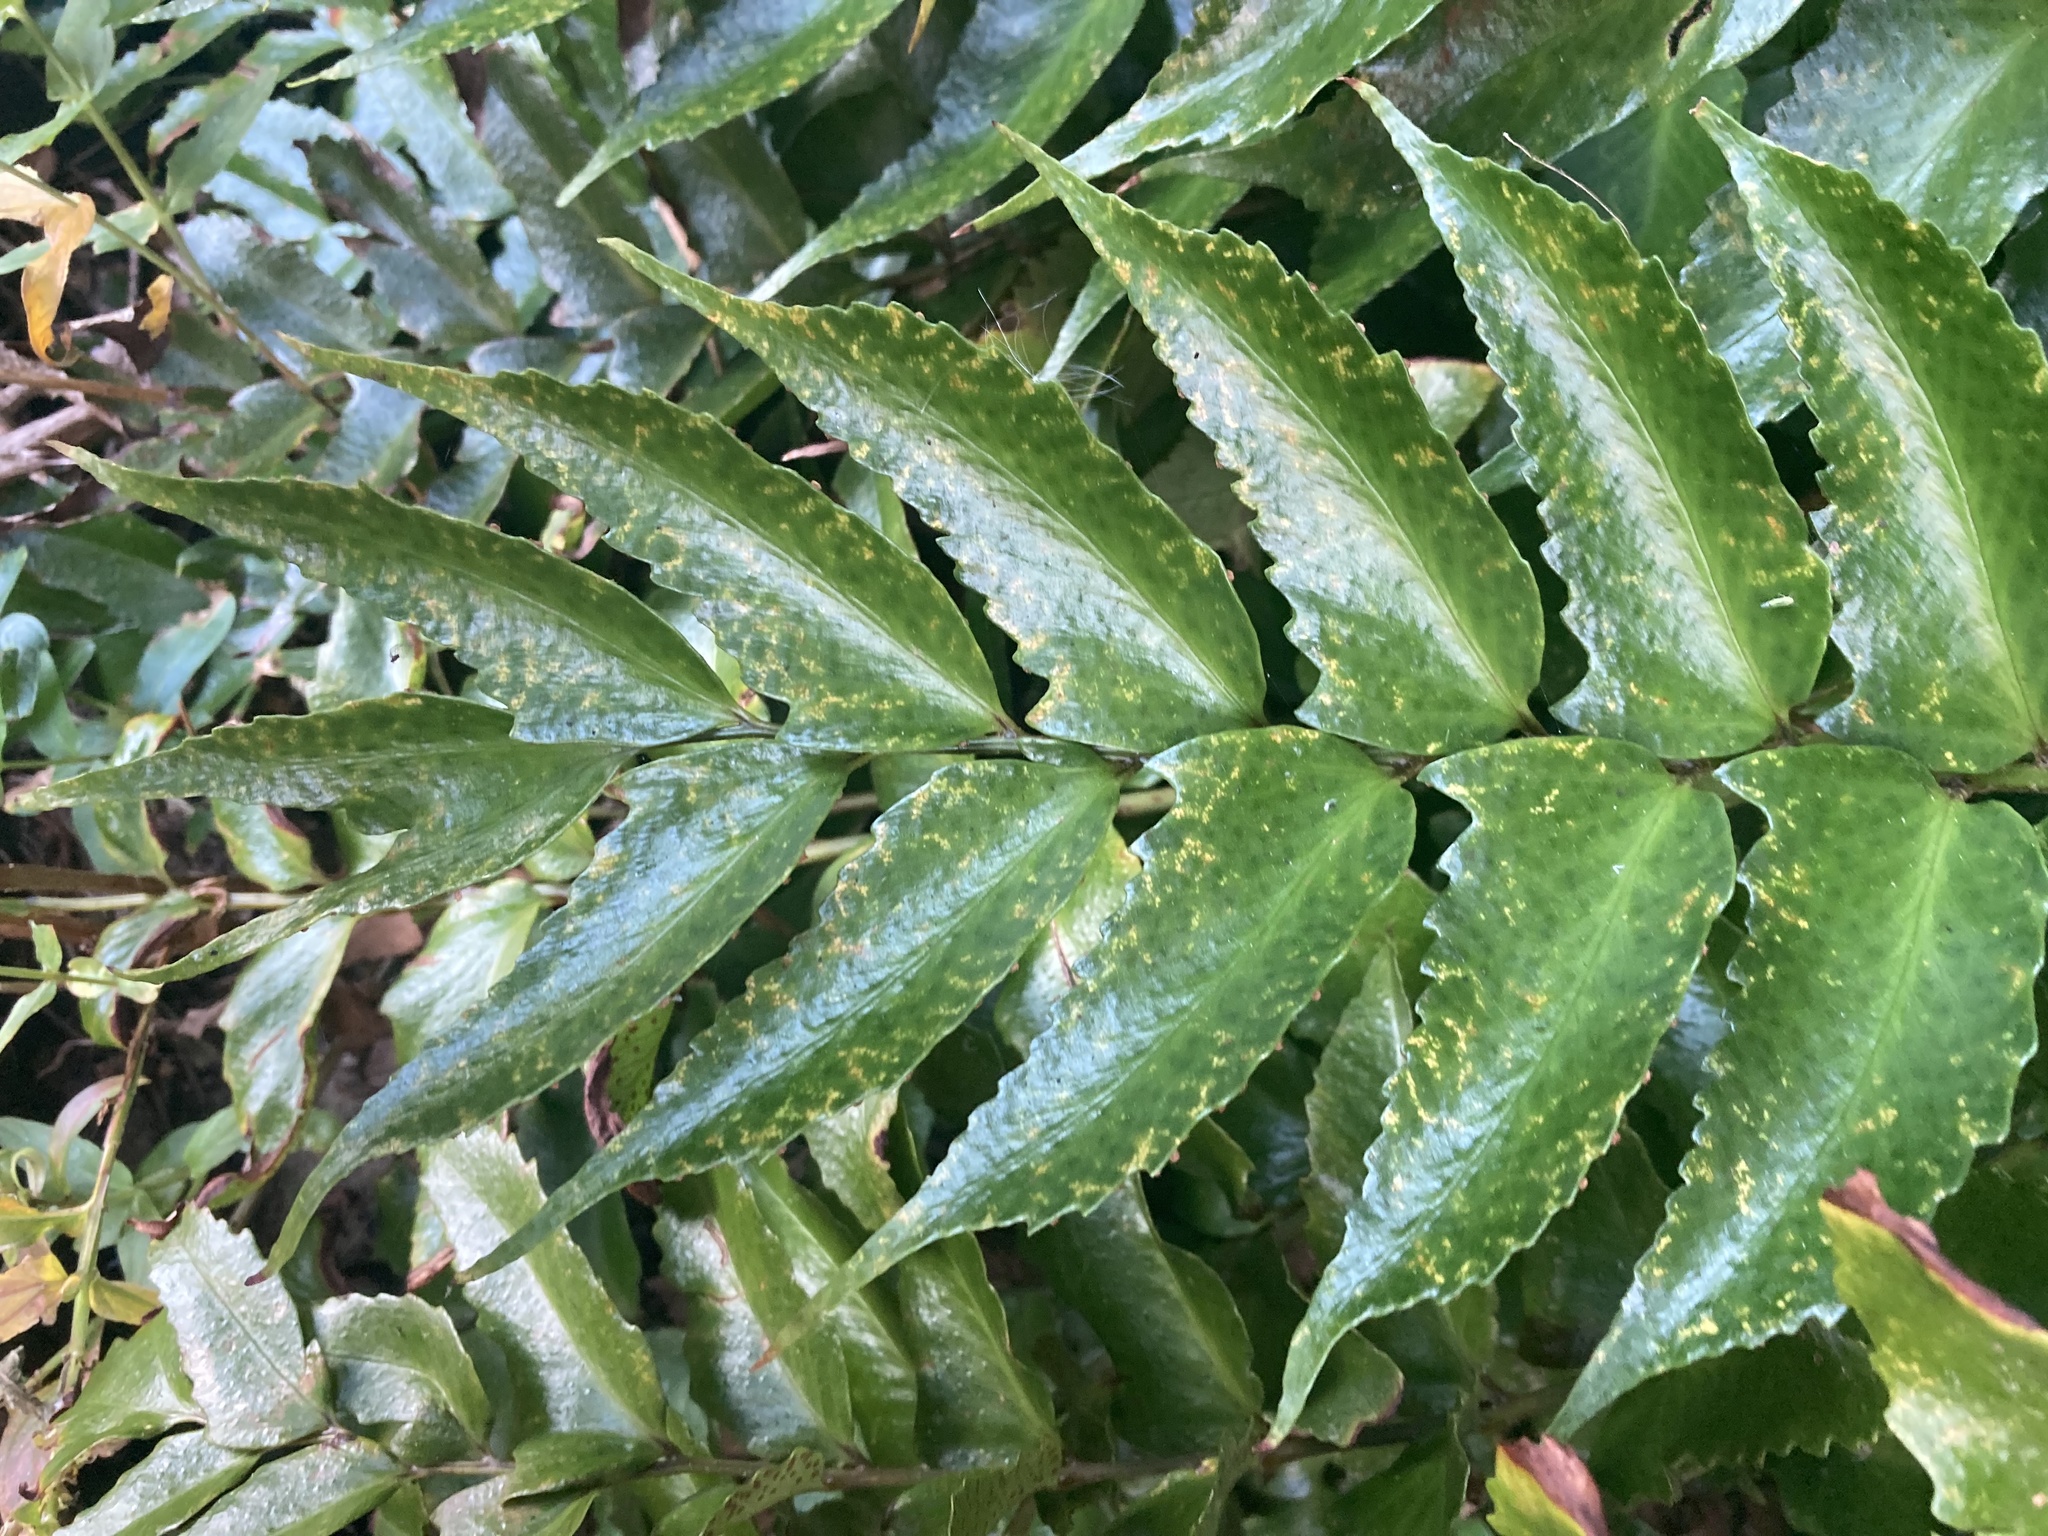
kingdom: Plantae
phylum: Tracheophyta
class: Polypodiopsida
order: Polypodiales
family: Dryopteridaceae
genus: Cyrtomium
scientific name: Cyrtomium falcatum
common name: House holly-fern
